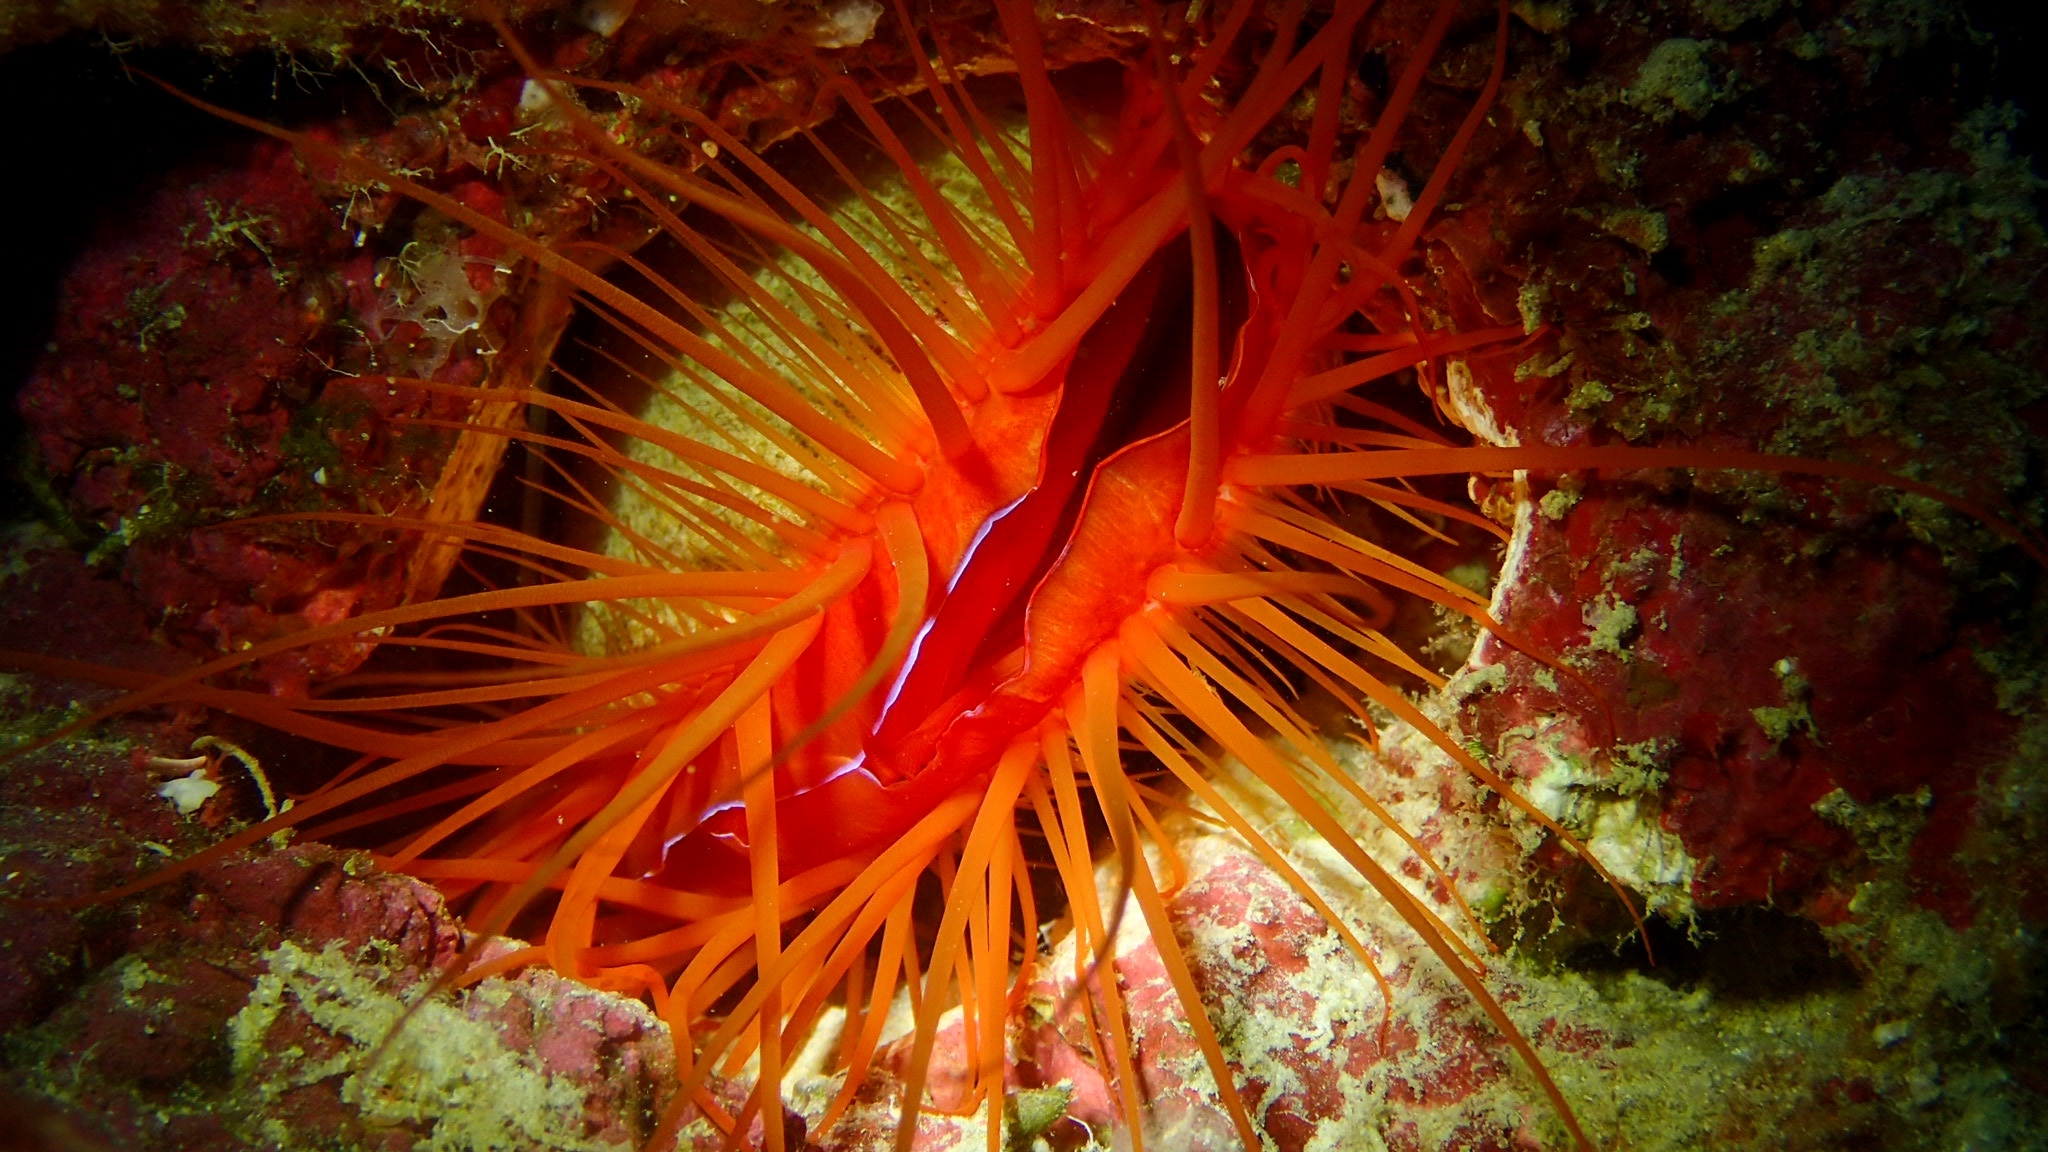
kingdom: Animalia
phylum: Mollusca
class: Bivalvia
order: Limida
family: Limidae
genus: Ctenoides
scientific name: Ctenoides ales
